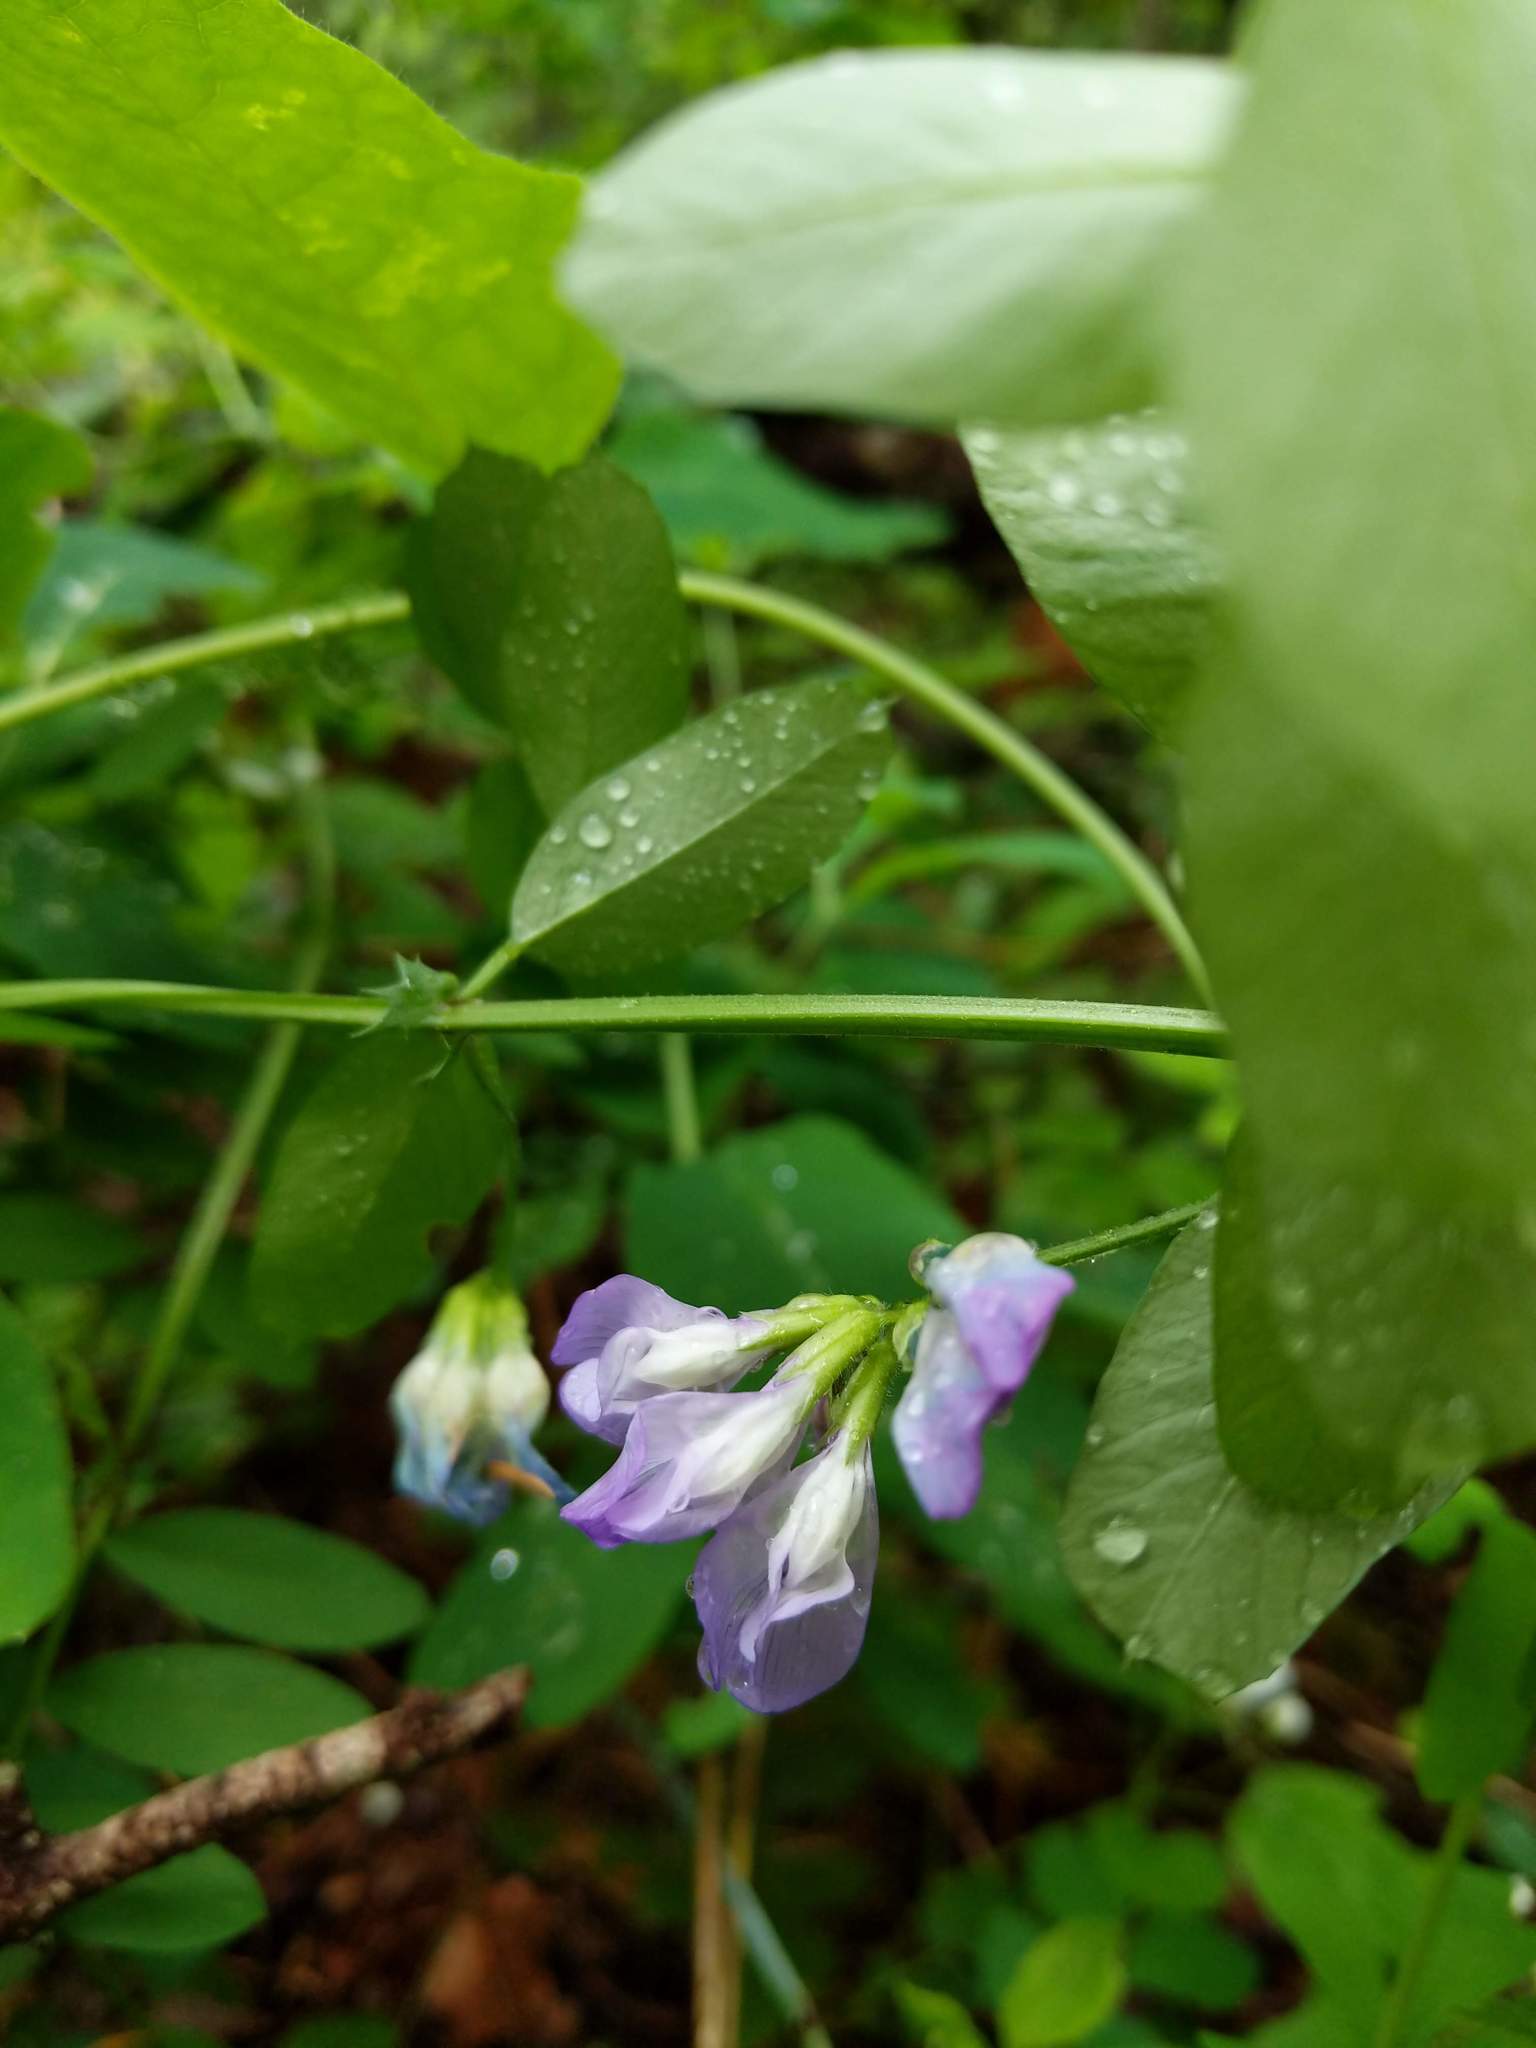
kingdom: Plantae
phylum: Tracheophyta
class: Magnoliopsida
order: Fabales
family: Fabaceae
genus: Vicia
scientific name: Vicia americana
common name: American vetch
